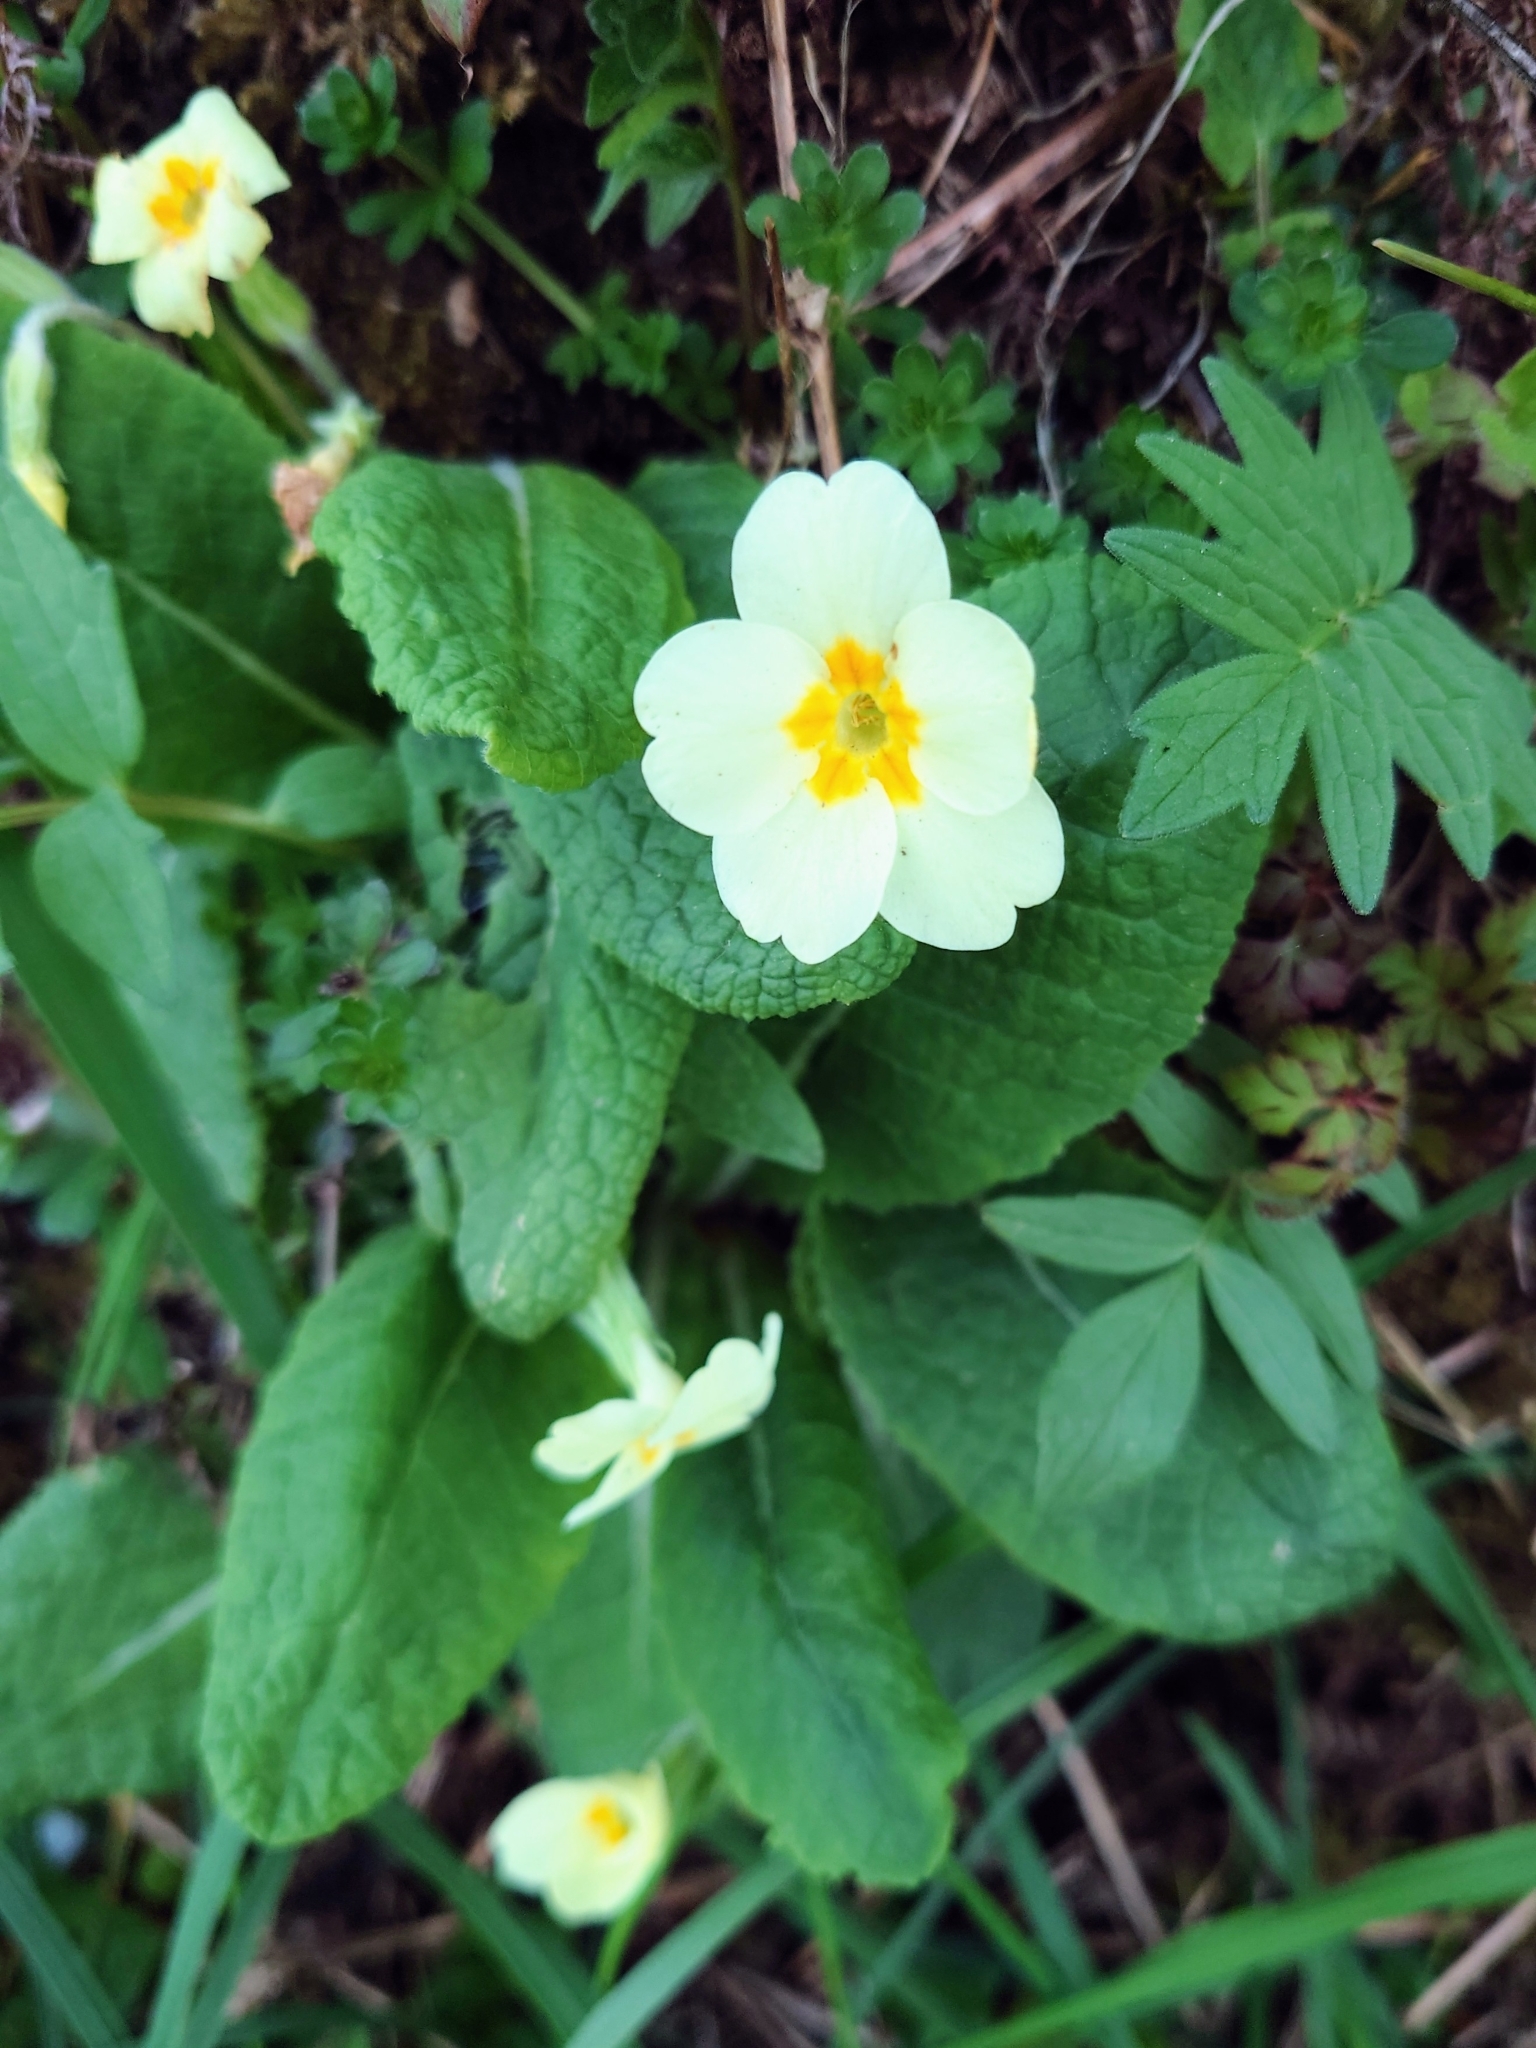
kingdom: Plantae
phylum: Tracheophyta
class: Magnoliopsida
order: Ericales
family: Primulaceae
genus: Primula
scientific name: Primula vulgaris
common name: Primrose
